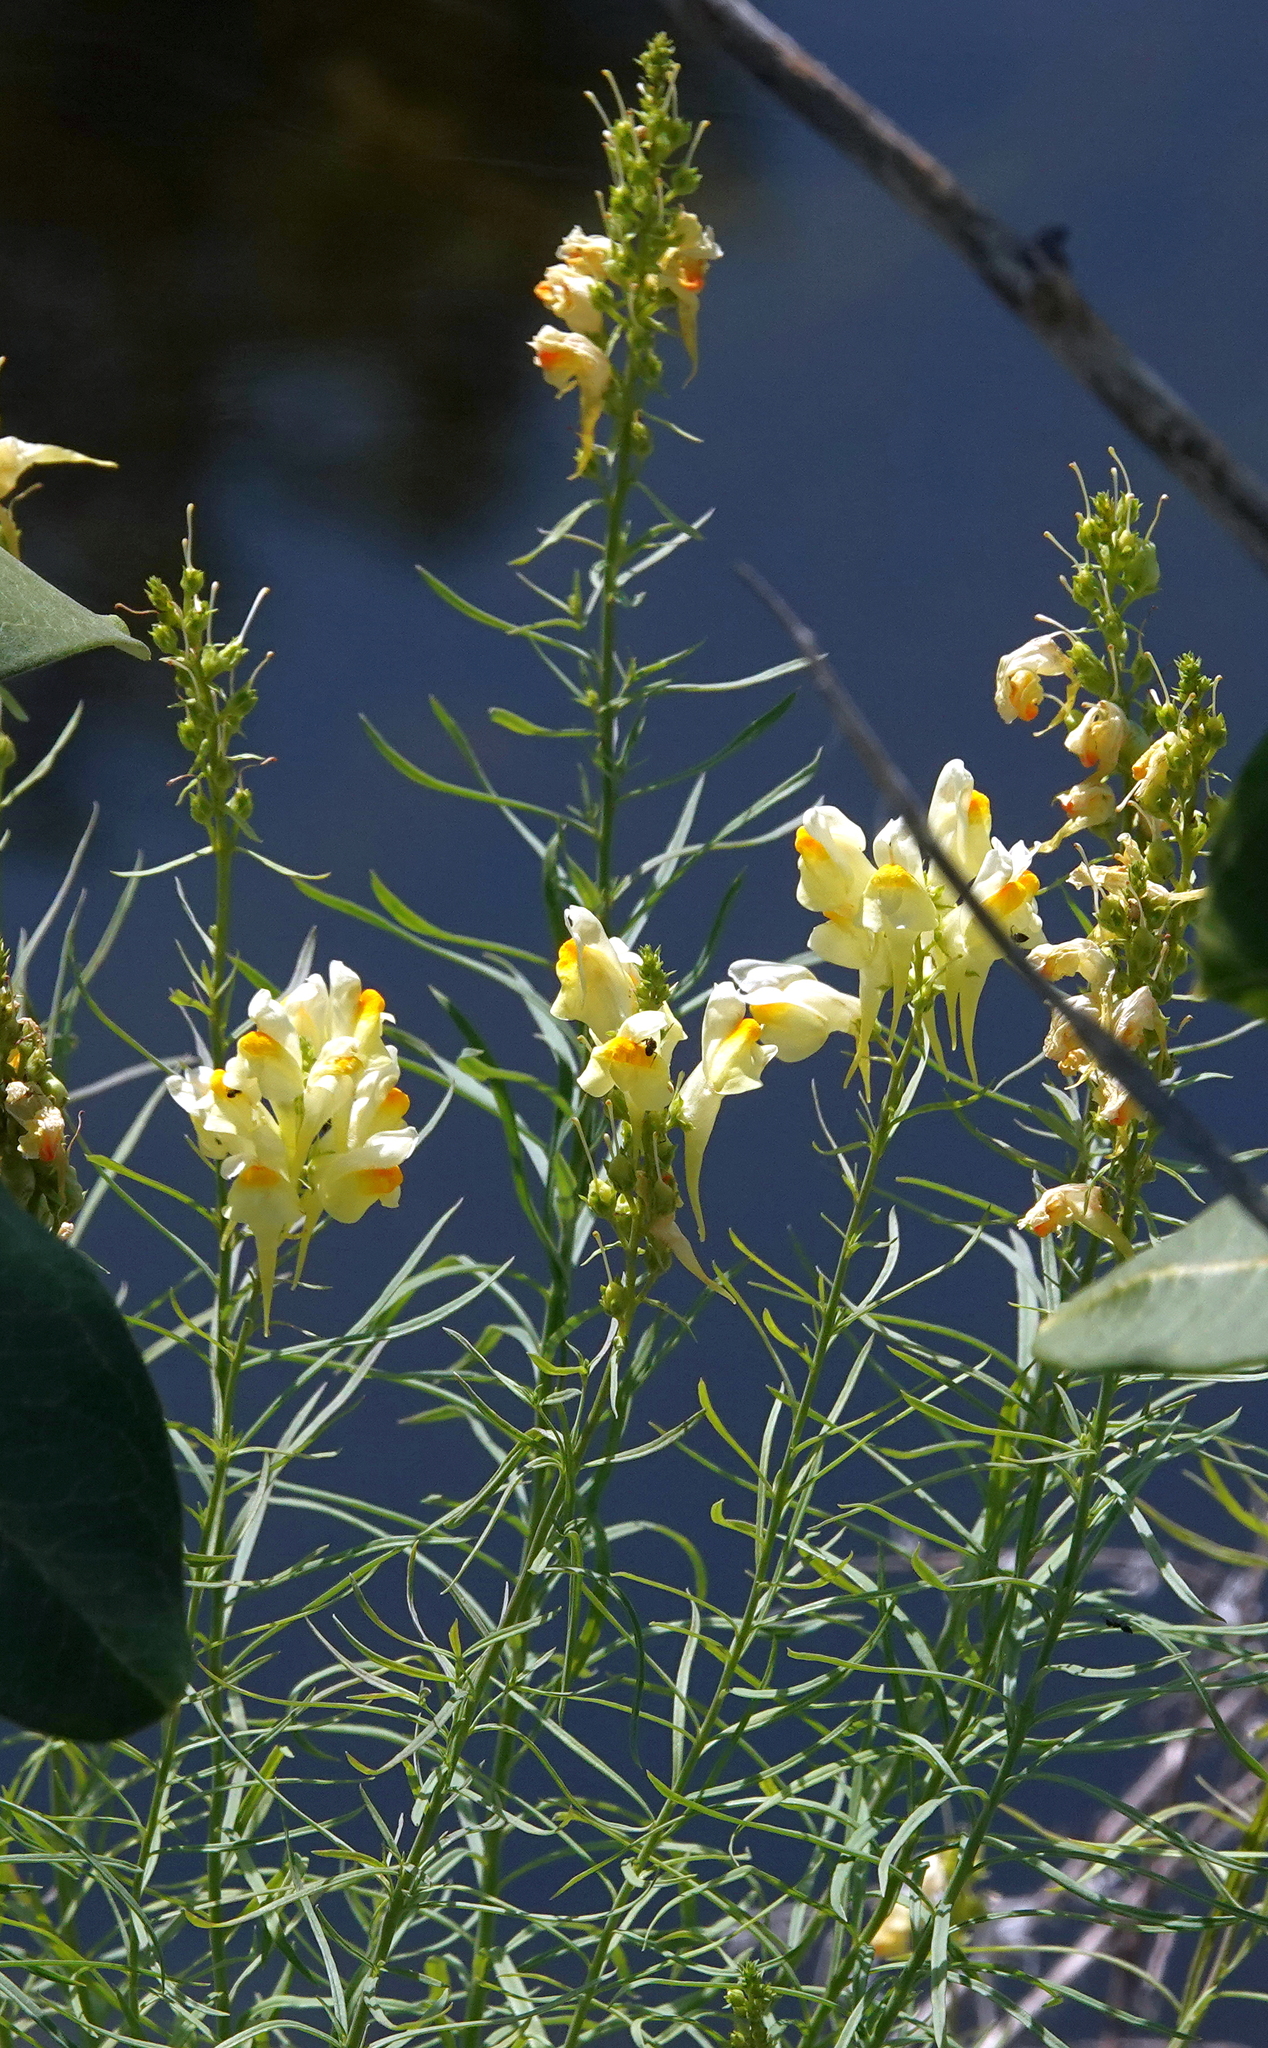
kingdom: Plantae
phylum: Tracheophyta
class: Magnoliopsida
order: Lamiales
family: Plantaginaceae
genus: Linaria
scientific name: Linaria vulgaris
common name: Butter and eggs
